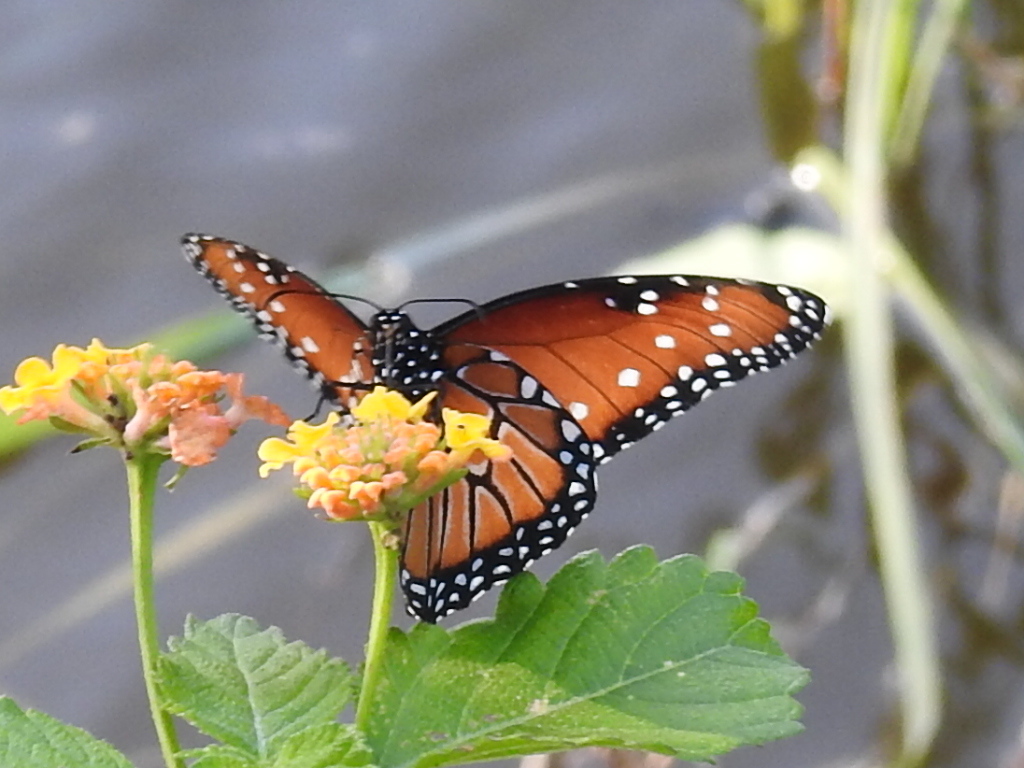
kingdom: Animalia
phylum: Arthropoda
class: Insecta
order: Lepidoptera
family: Nymphalidae
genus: Danaus
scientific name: Danaus gilippus
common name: Queen
